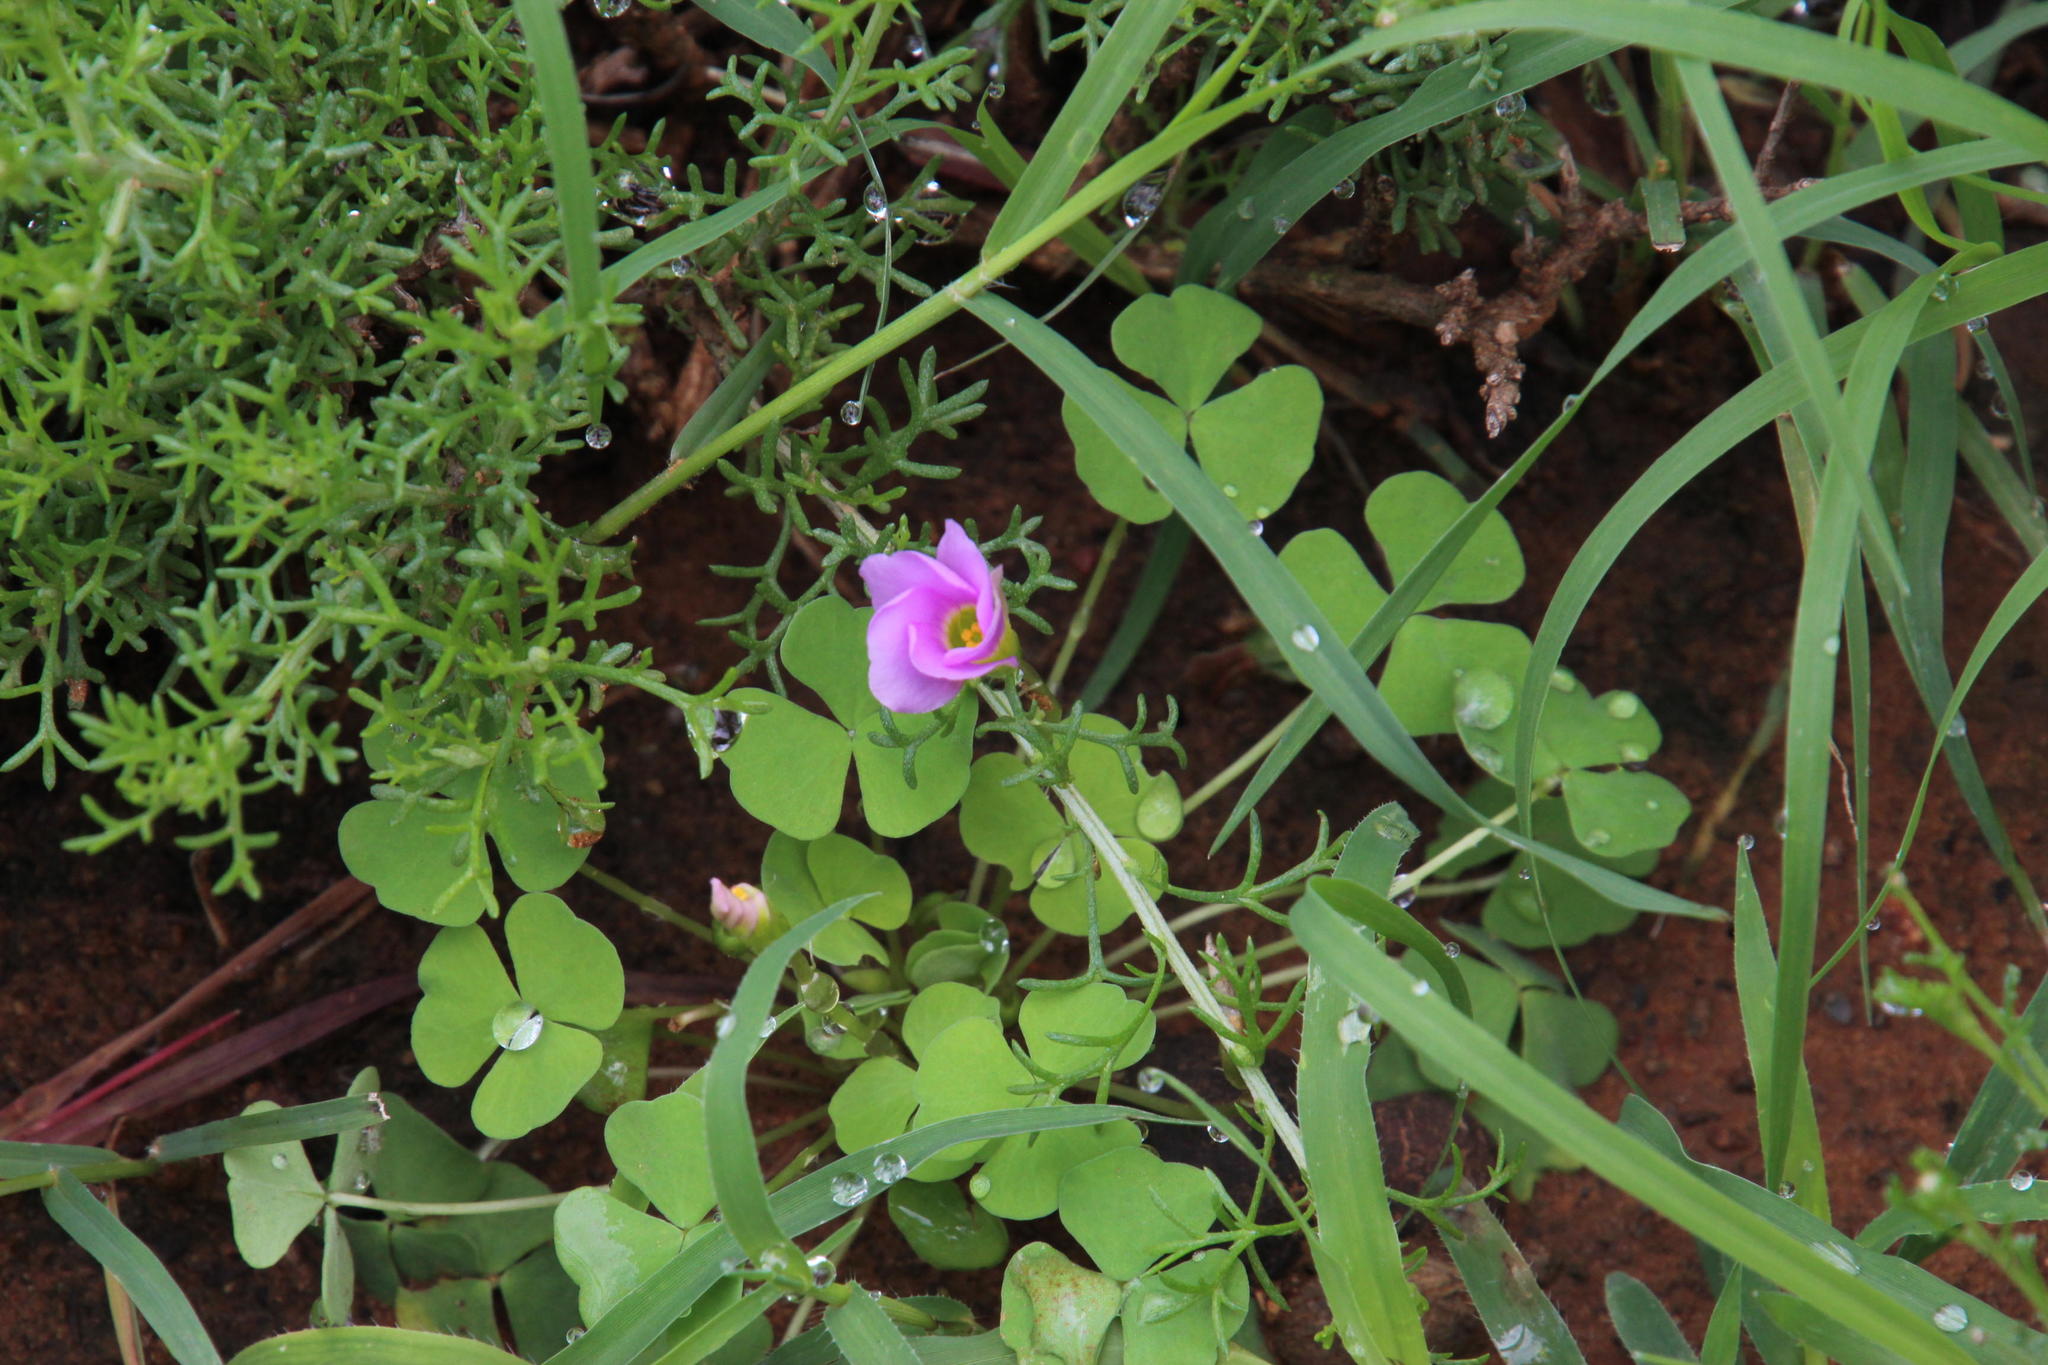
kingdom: Plantae
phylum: Tracheophyta
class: Magnoliopsida
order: Oxalidales
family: Oxalidaceae
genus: Oxalis
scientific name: Oxalis obliquifolia
